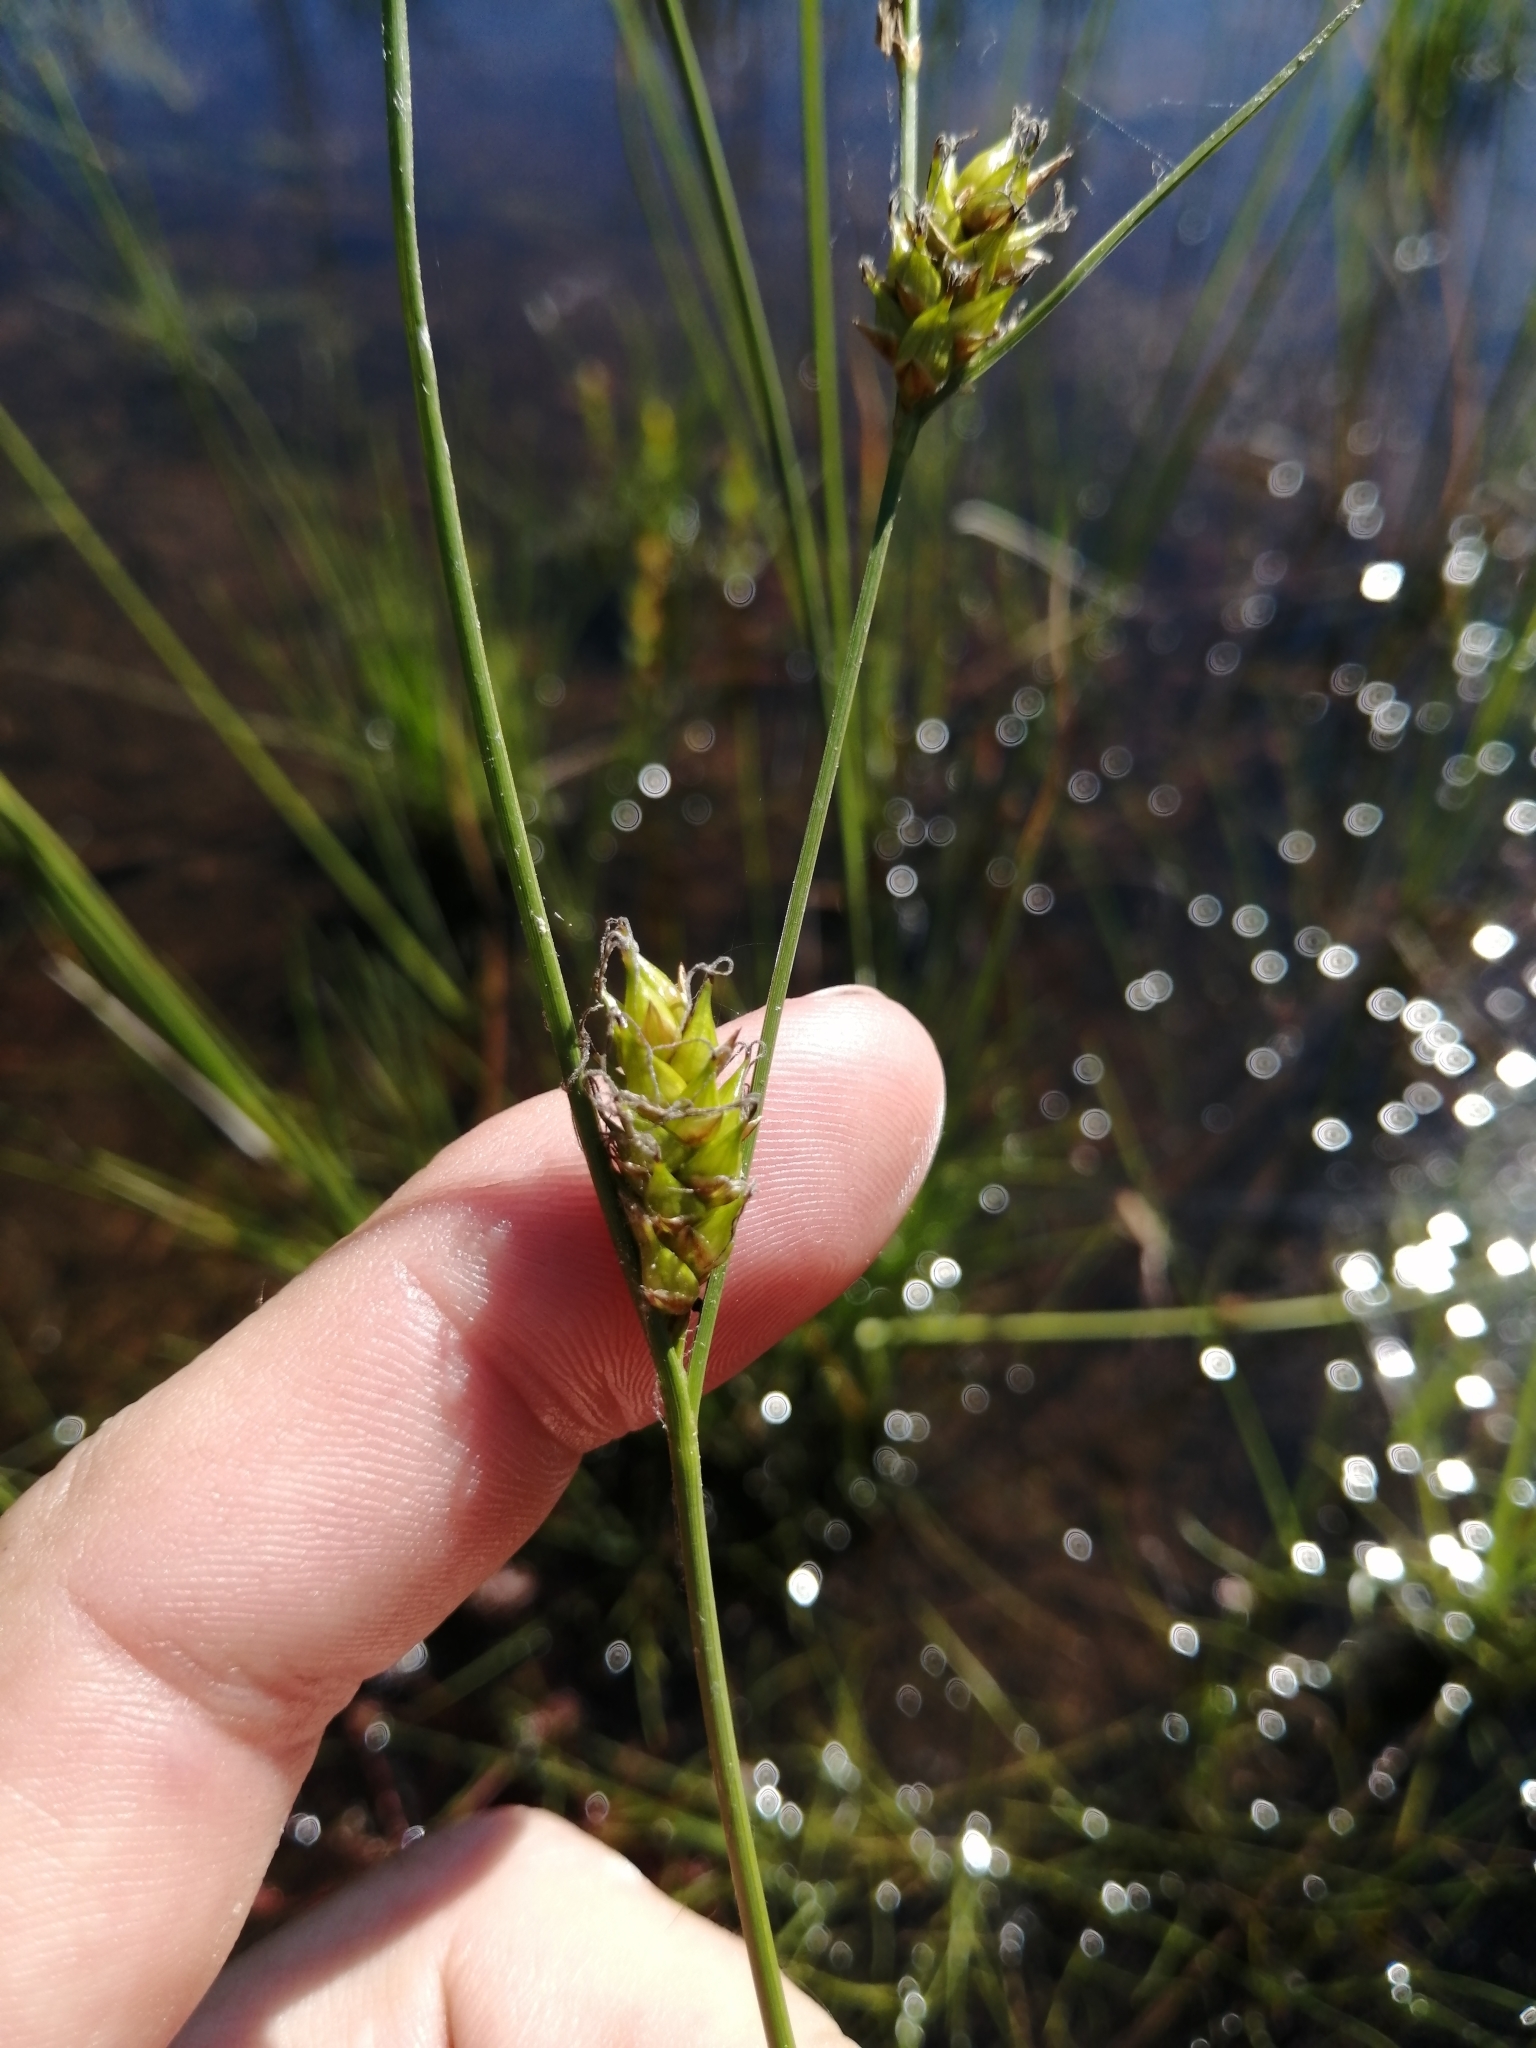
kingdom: Plantae
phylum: Tracheophyta
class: Liliopsida
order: Poales
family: Cyperaceae
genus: Carex
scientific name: Carex oligosperma
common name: Few-seed sedge
